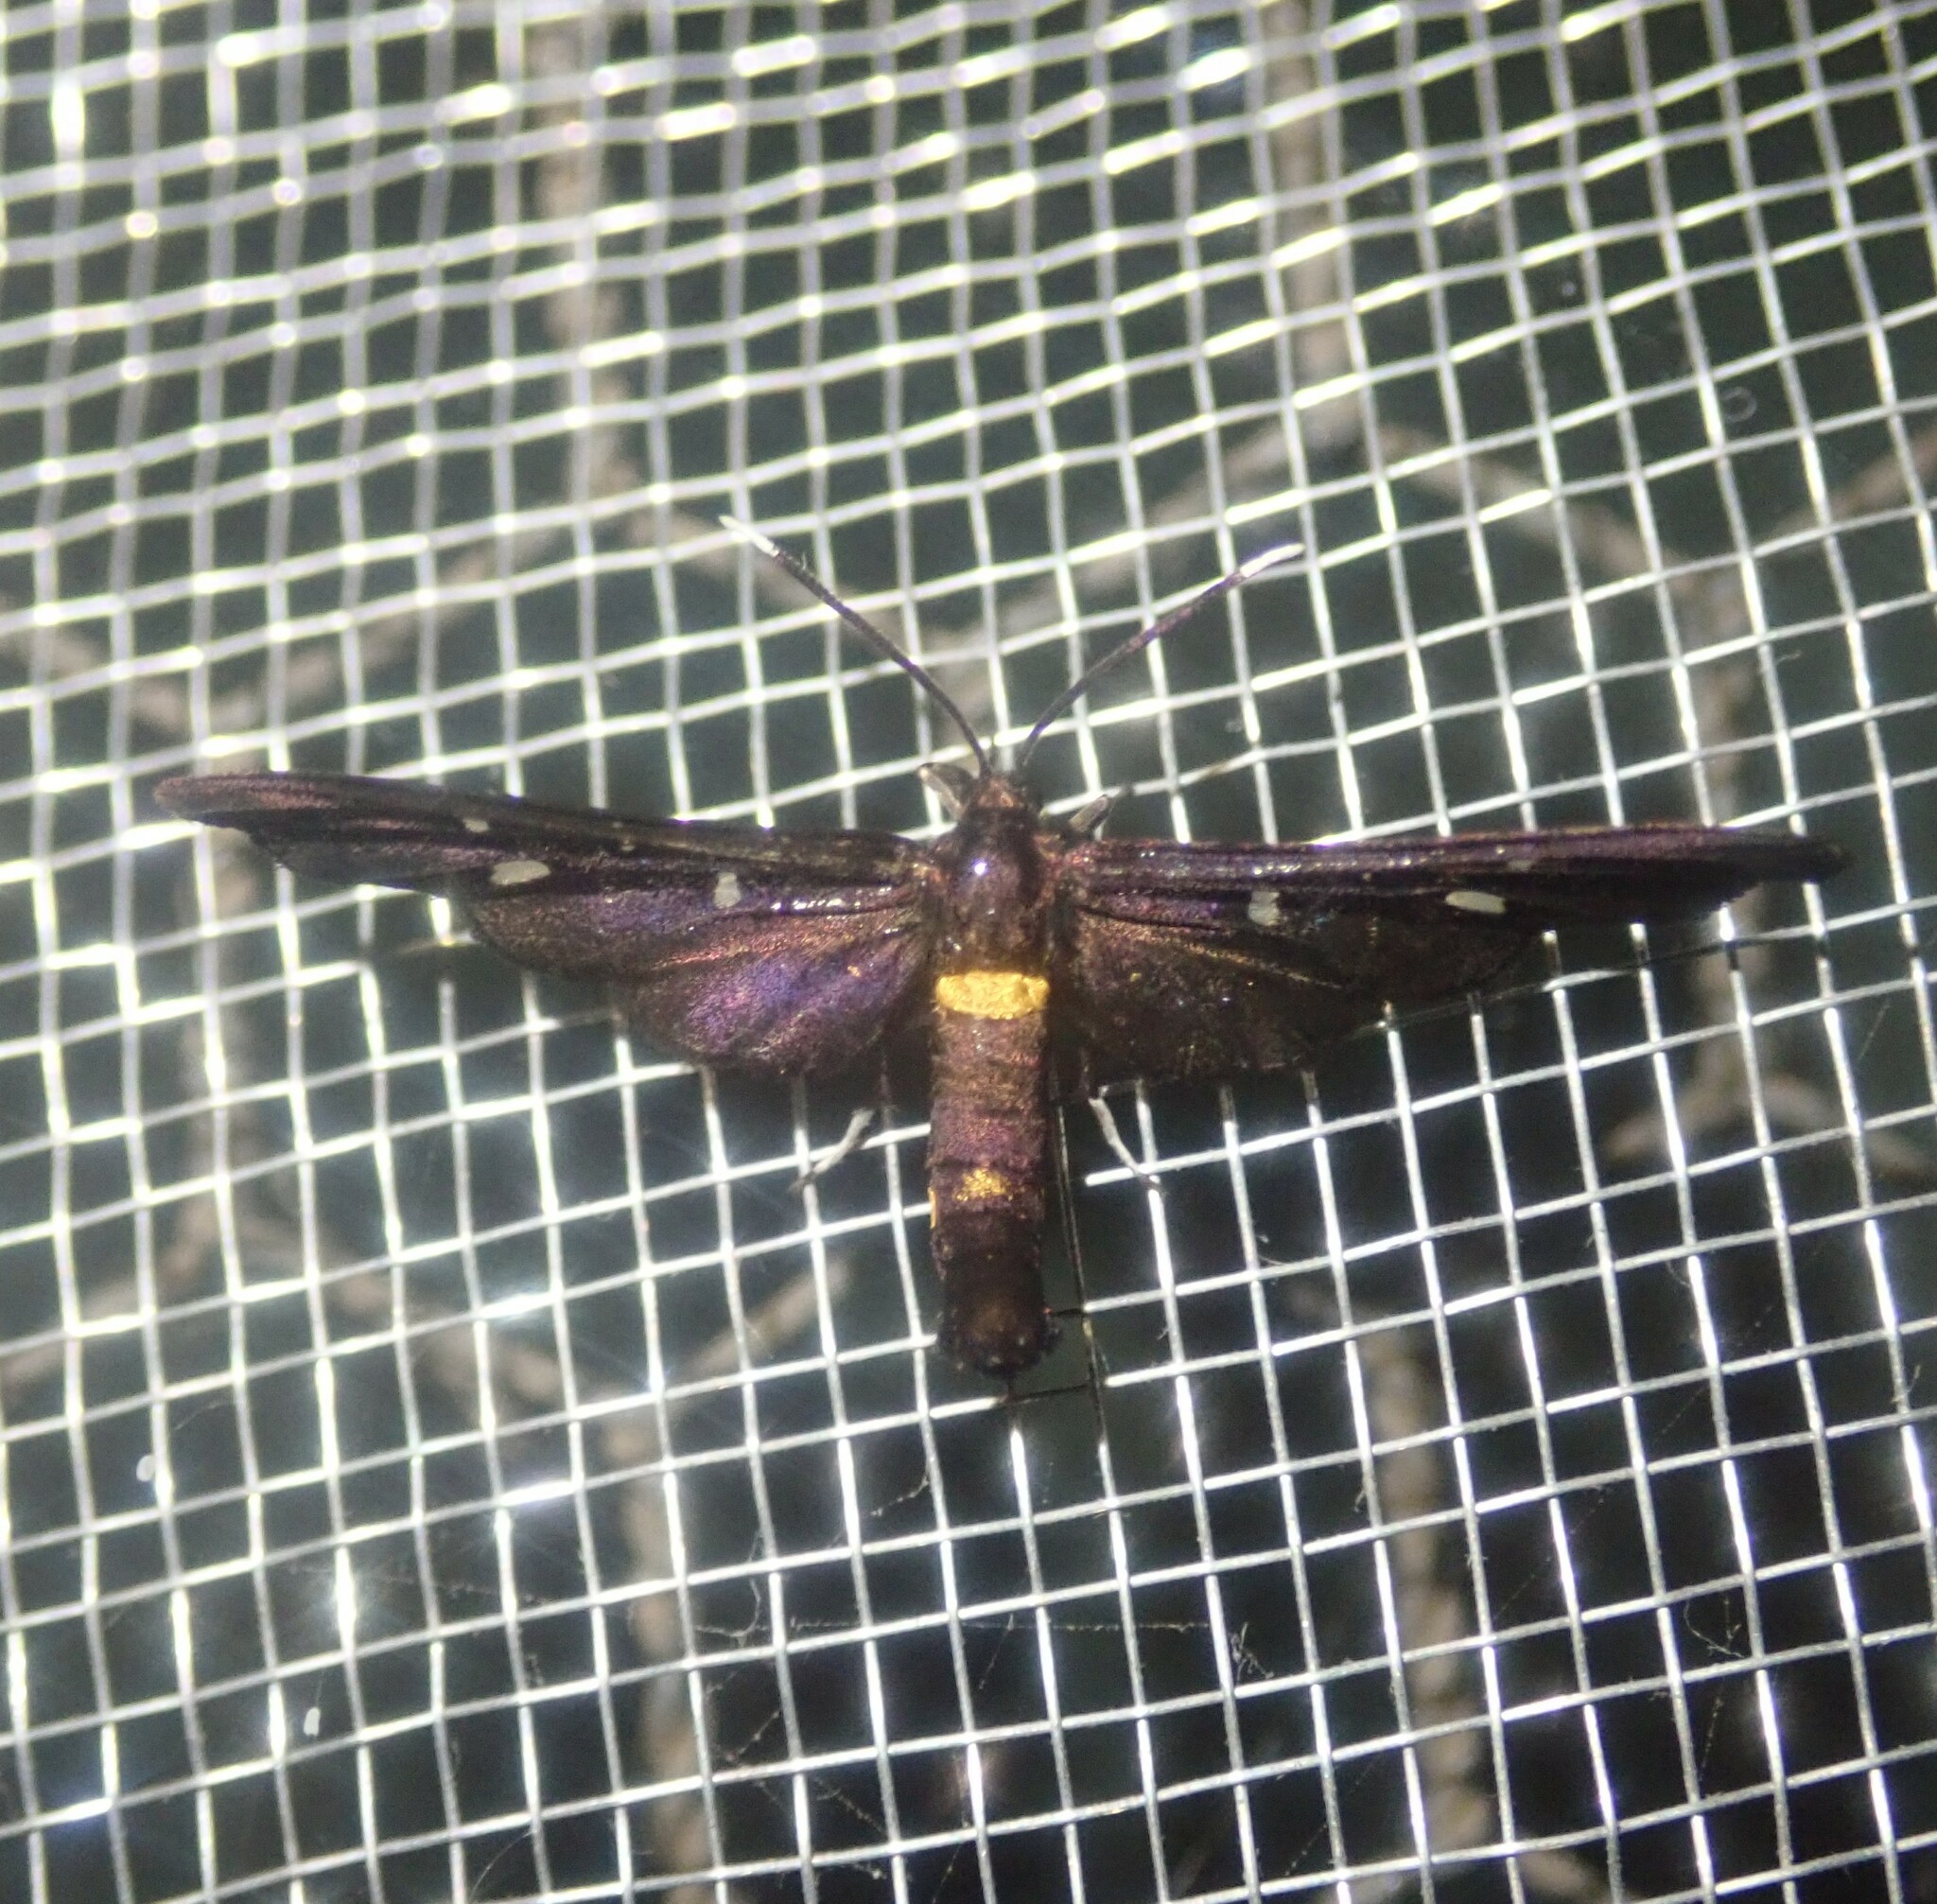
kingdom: Animalia
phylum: Arthropoda
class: Insecta
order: Lepidoptera
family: Erebidae
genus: Hampsonata
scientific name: Hampsonata phoenicia
